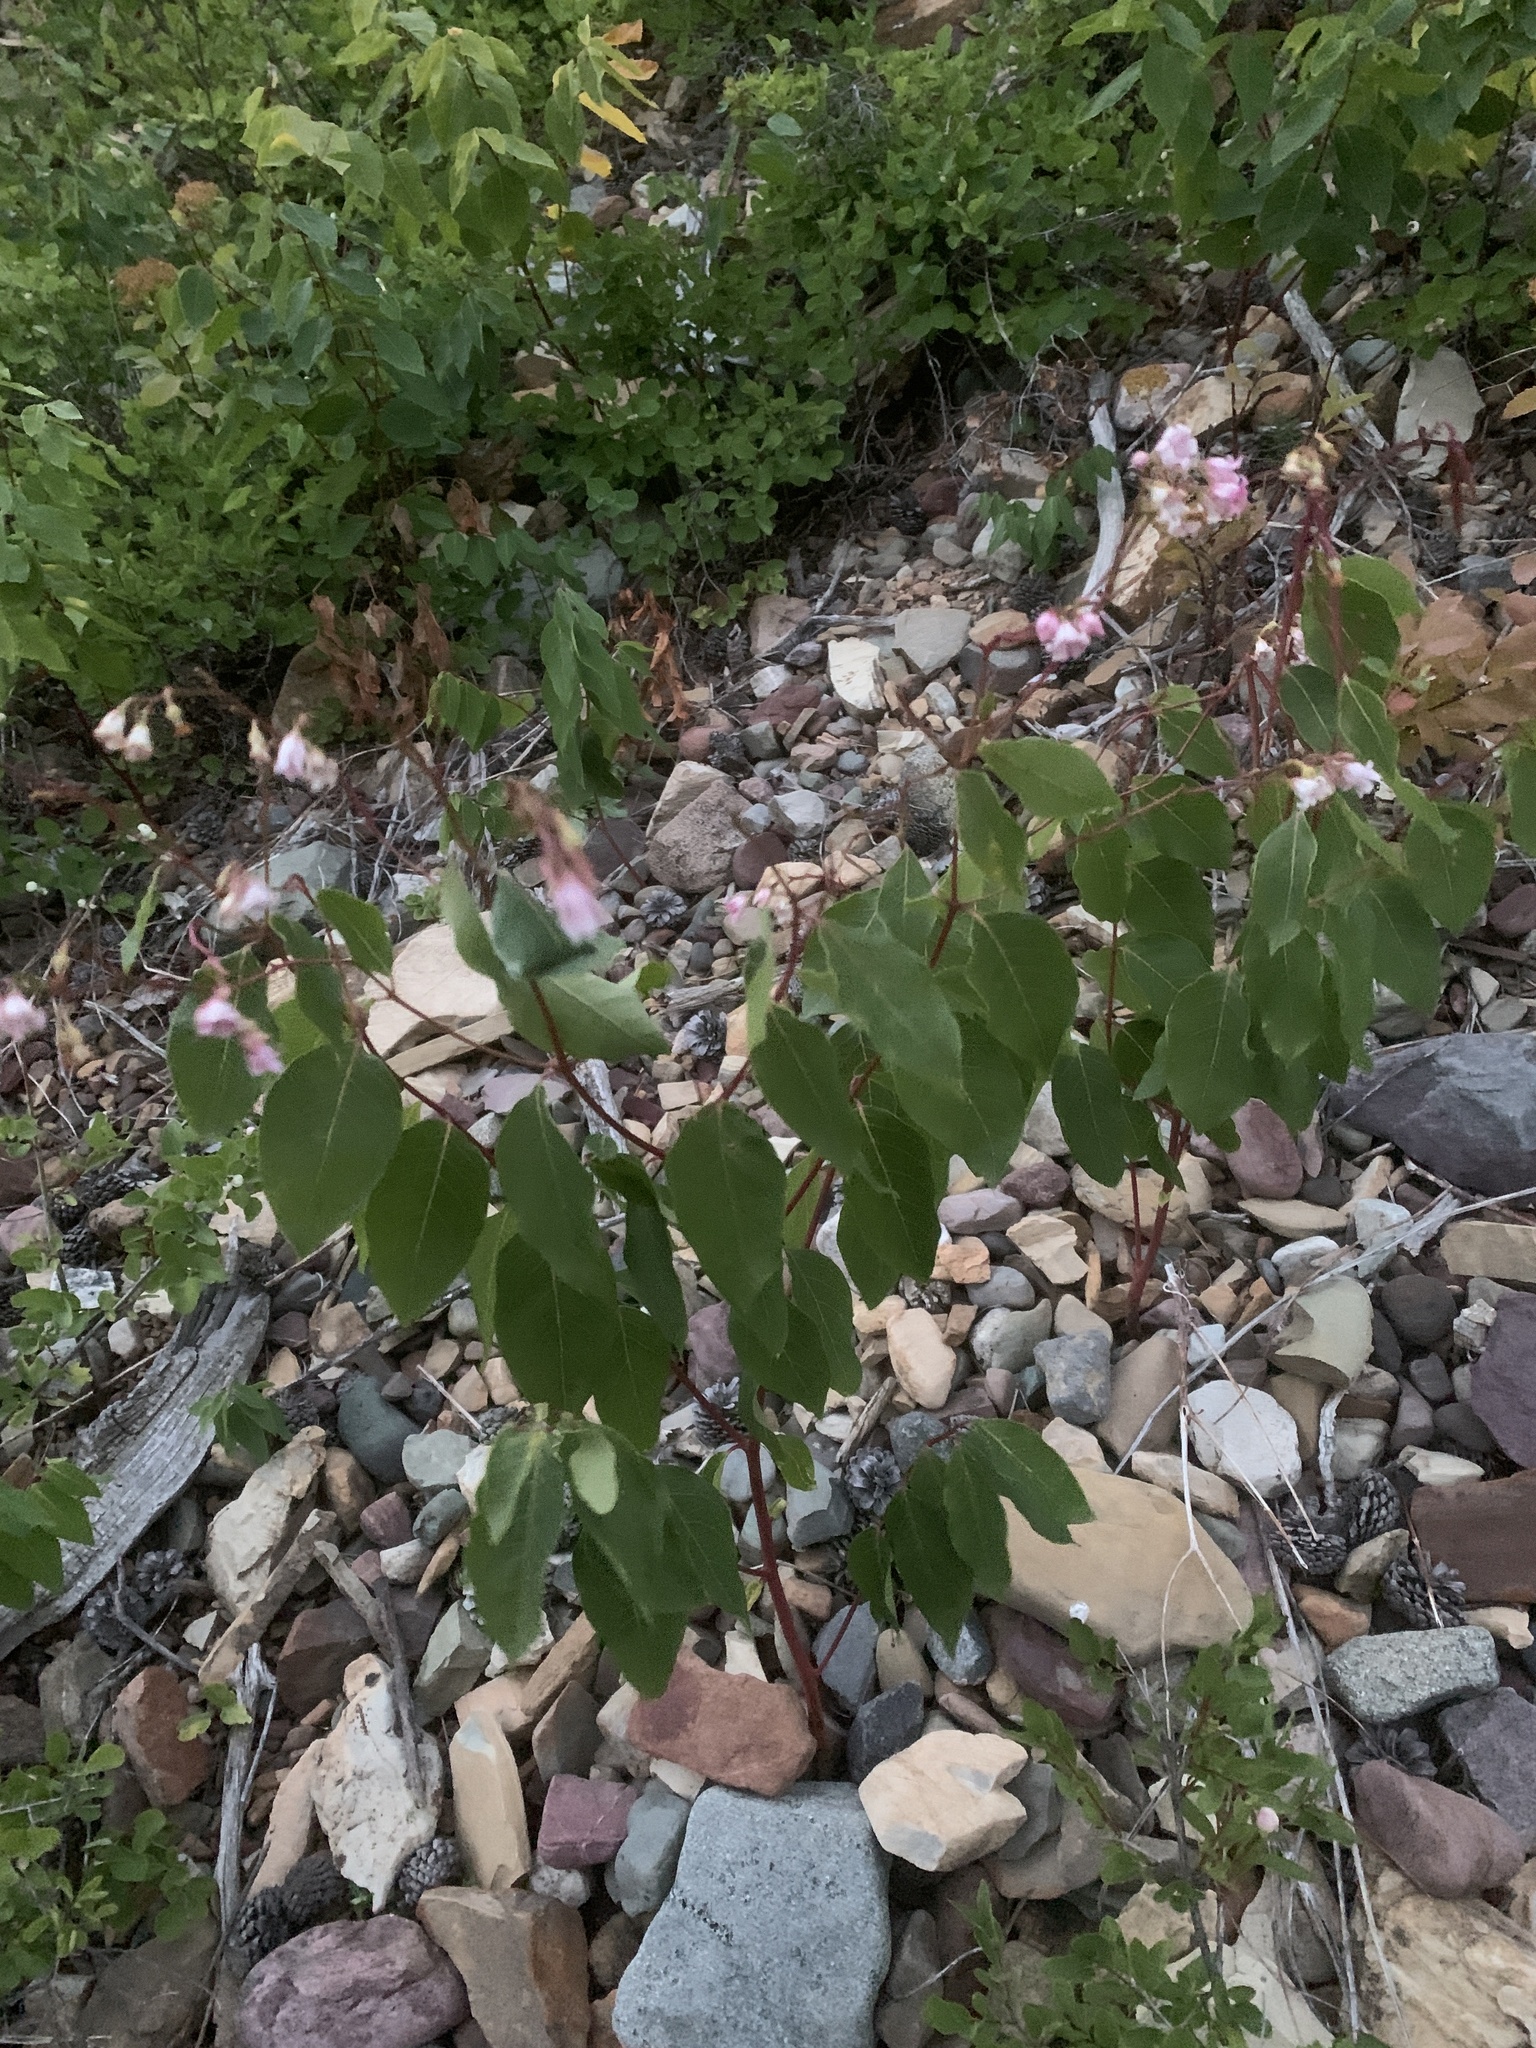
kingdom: Plantae
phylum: Tracheophyta
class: Magnoliopsida
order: Gentianales
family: Apocynaceae
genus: Apocynum
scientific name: Apocynum androsaemifolium
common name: Spreading dogbane
